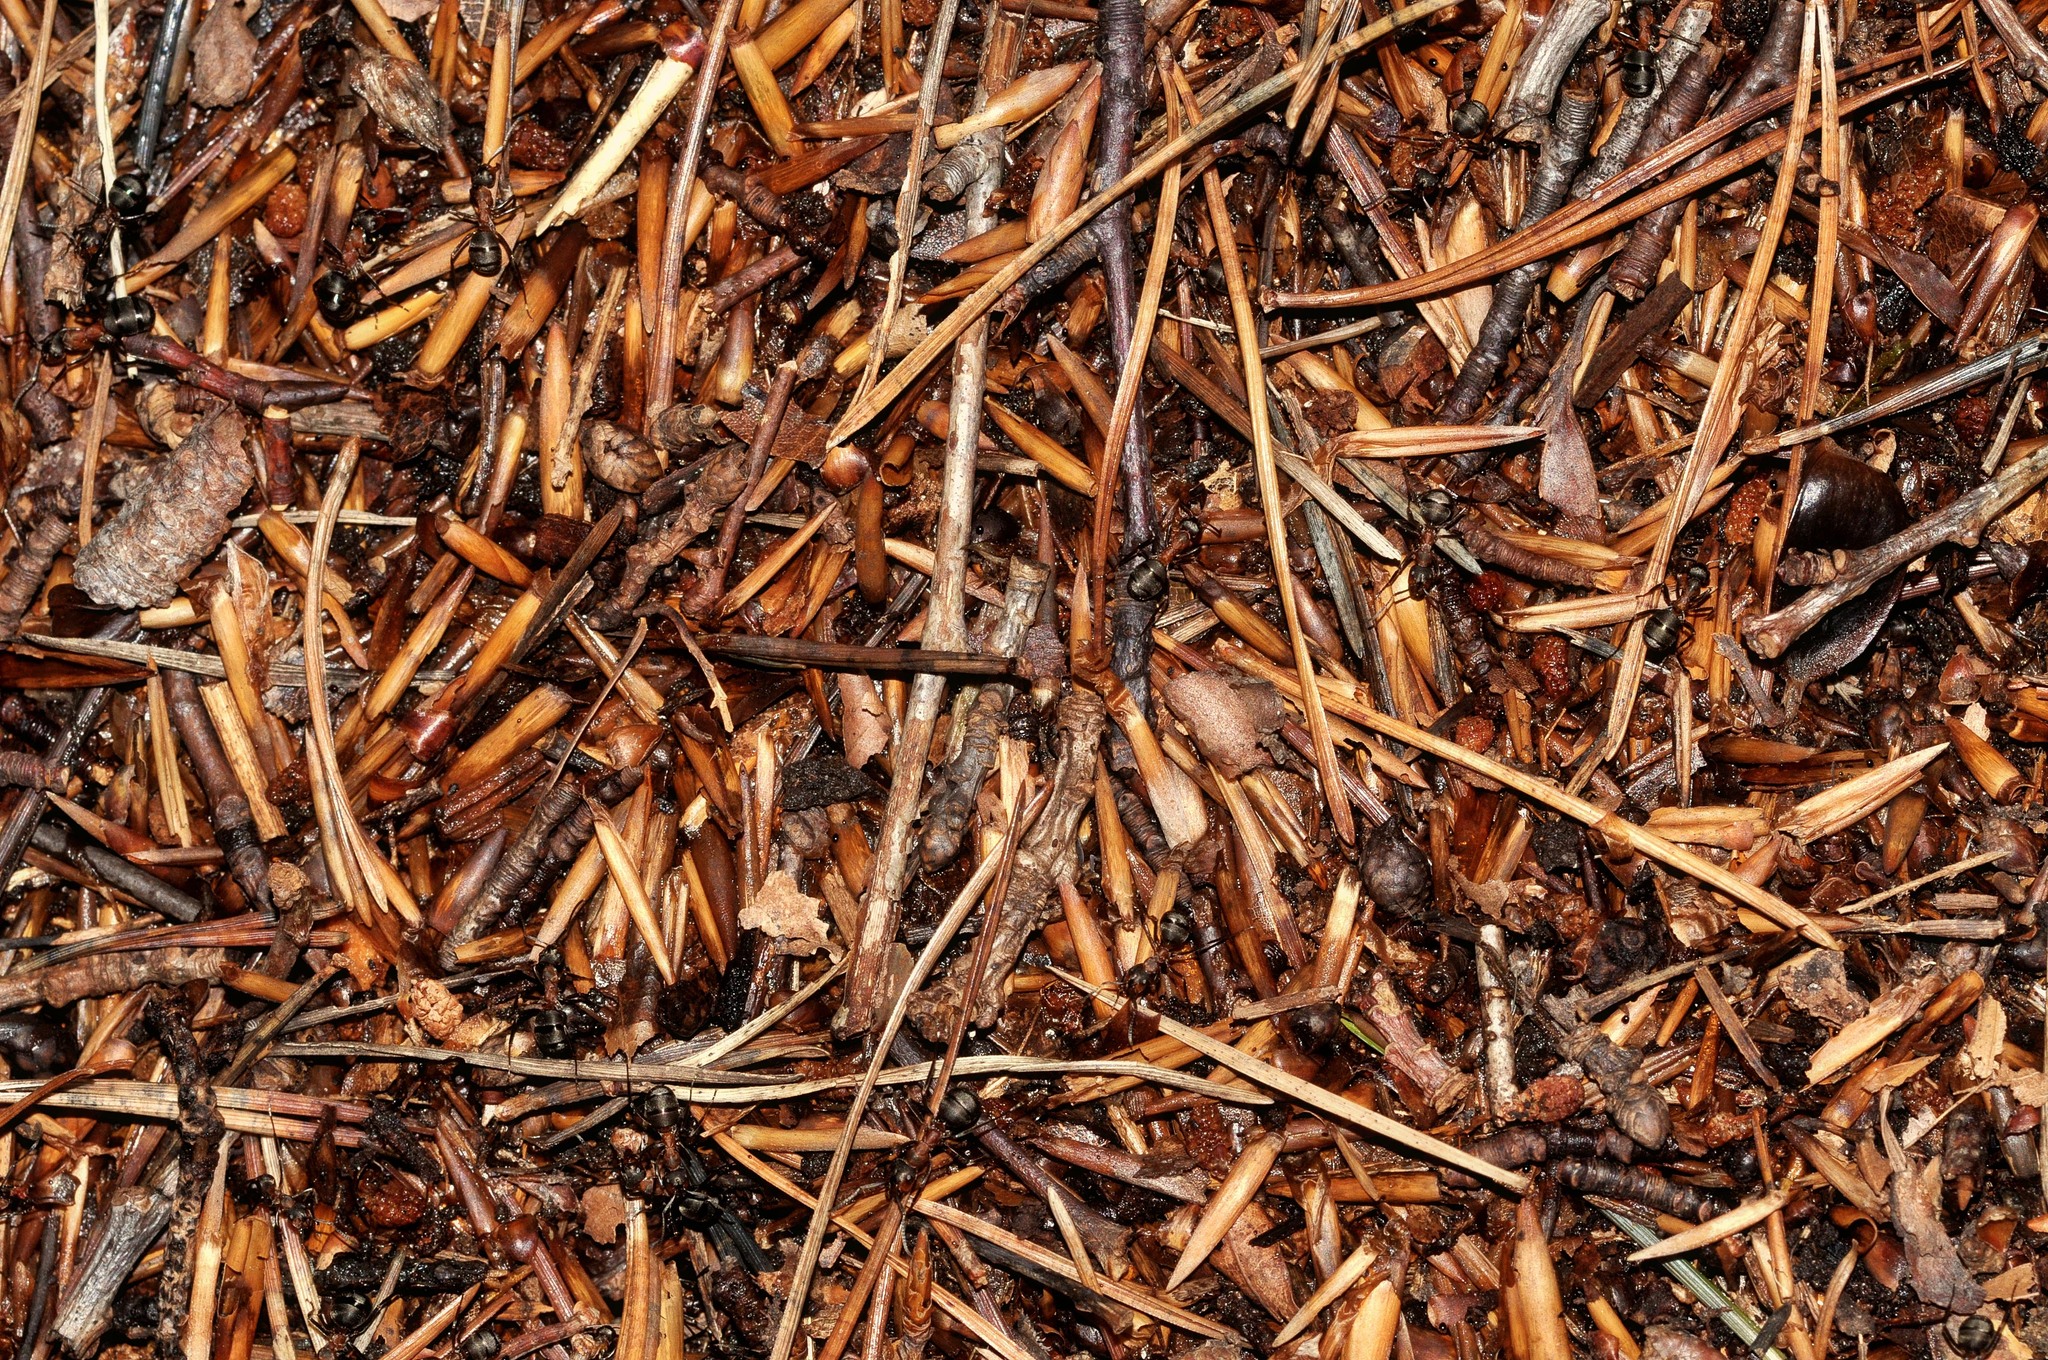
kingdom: Animalia
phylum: Arthropoda
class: Insecta
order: Hymenoptera
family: Formicidae
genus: Formica
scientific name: Formica
